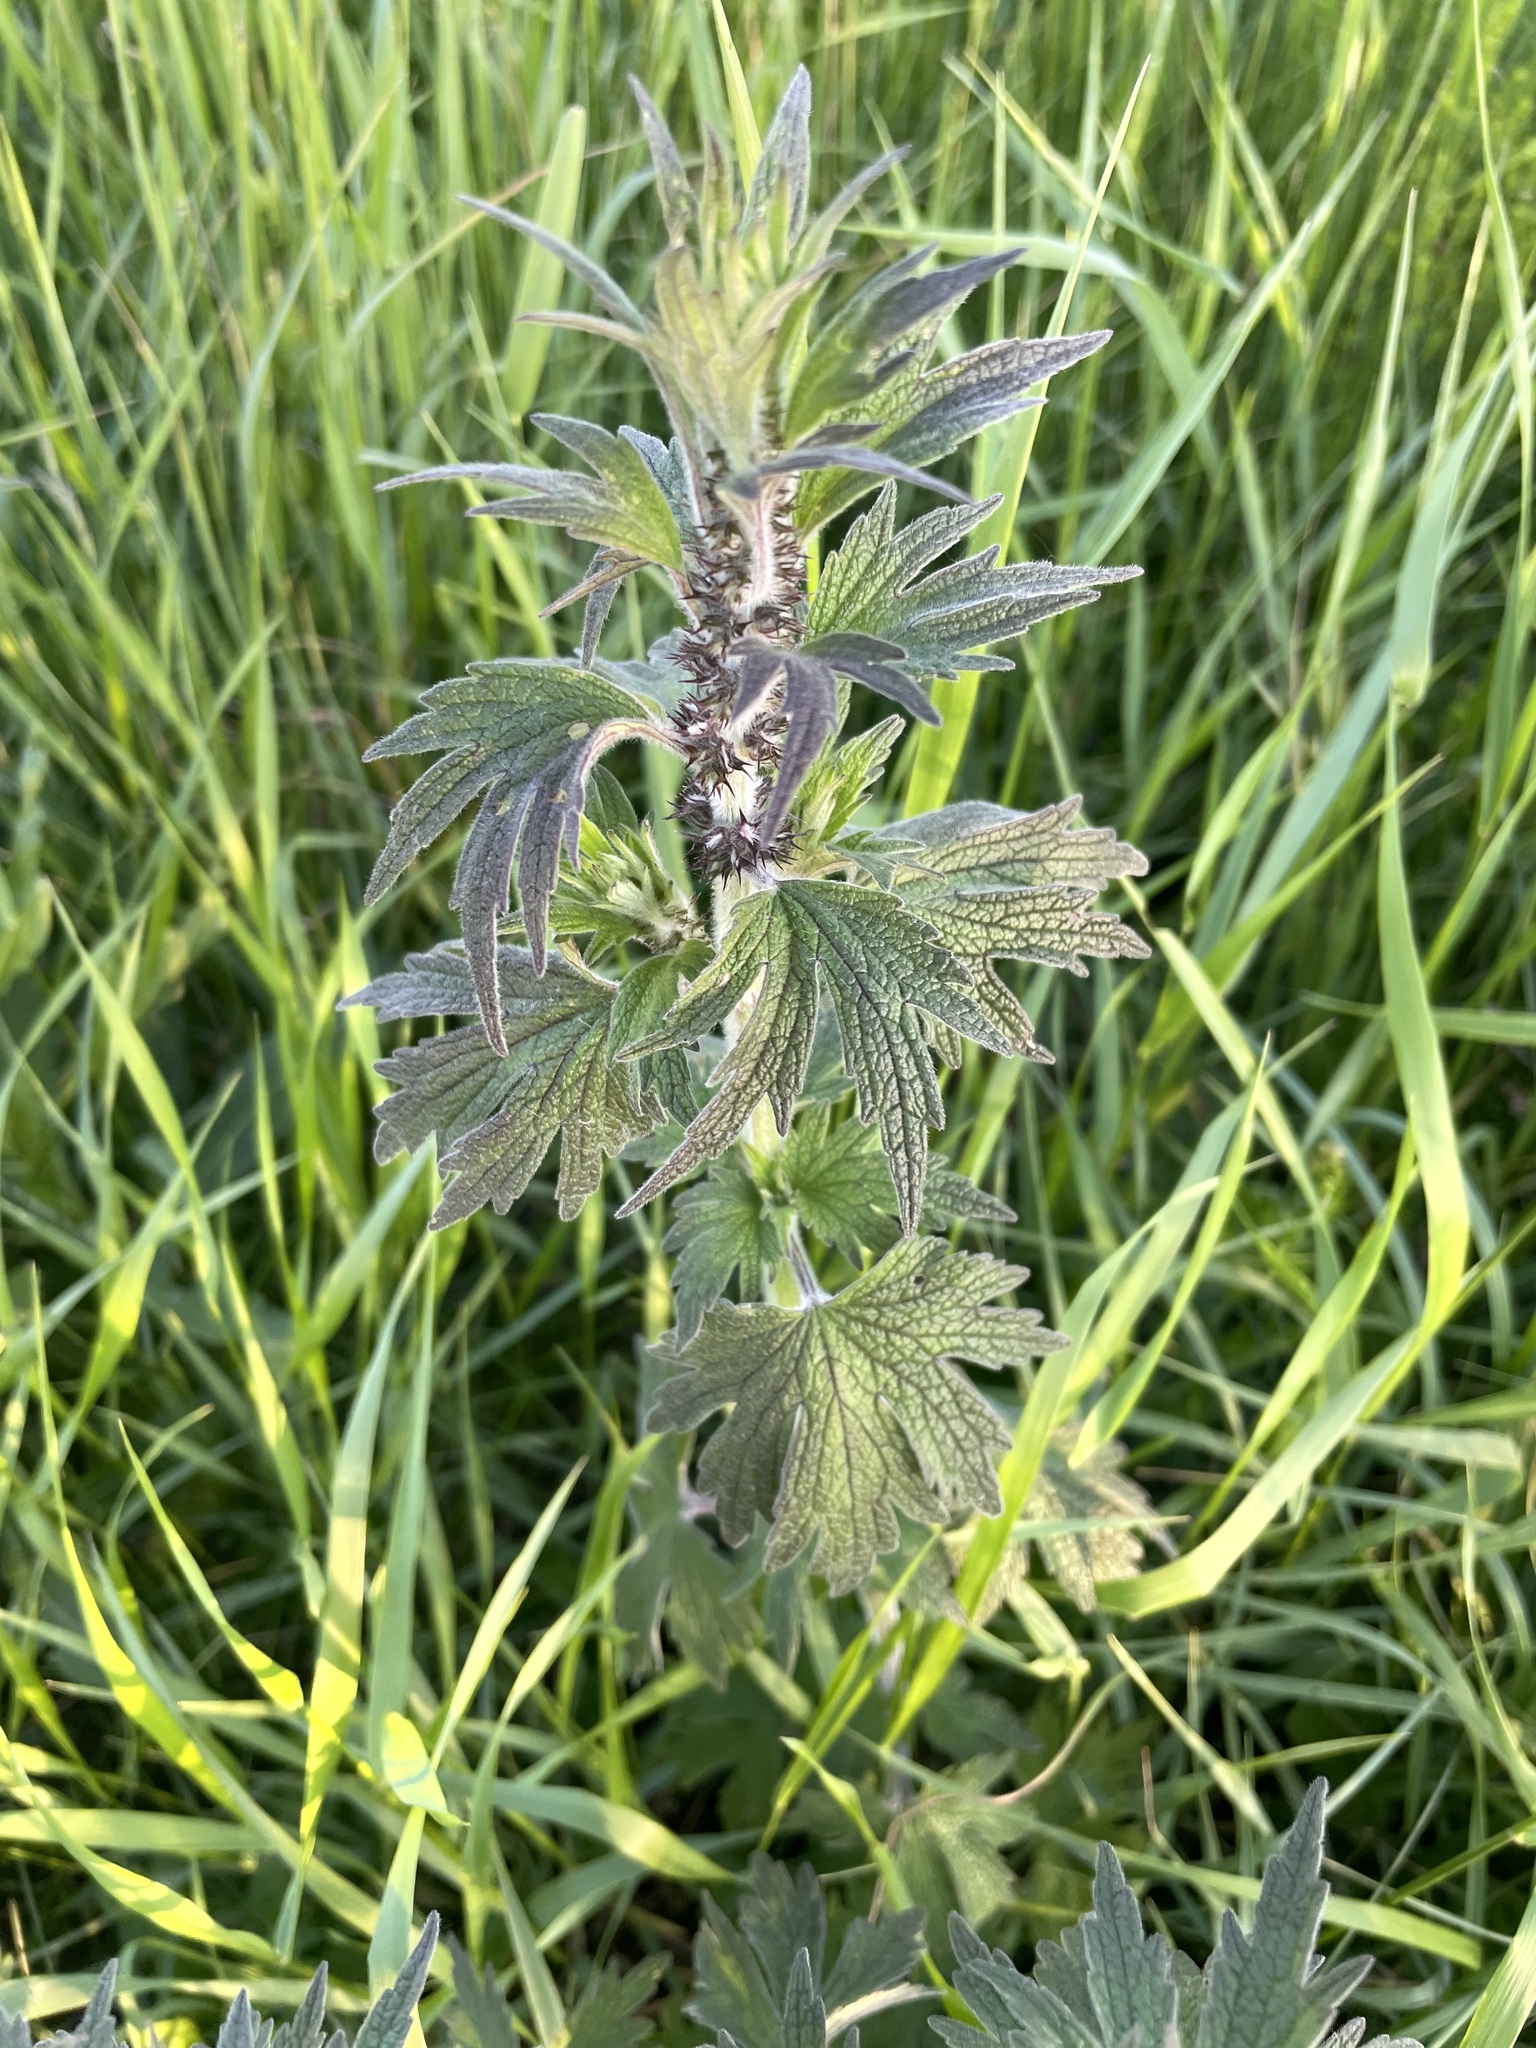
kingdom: Plantae
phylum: Tracheophyta
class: Magnoliopsida
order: Lamiales
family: Lamiaceae
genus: Leonurus
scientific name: Leonurus quinquelobatus
